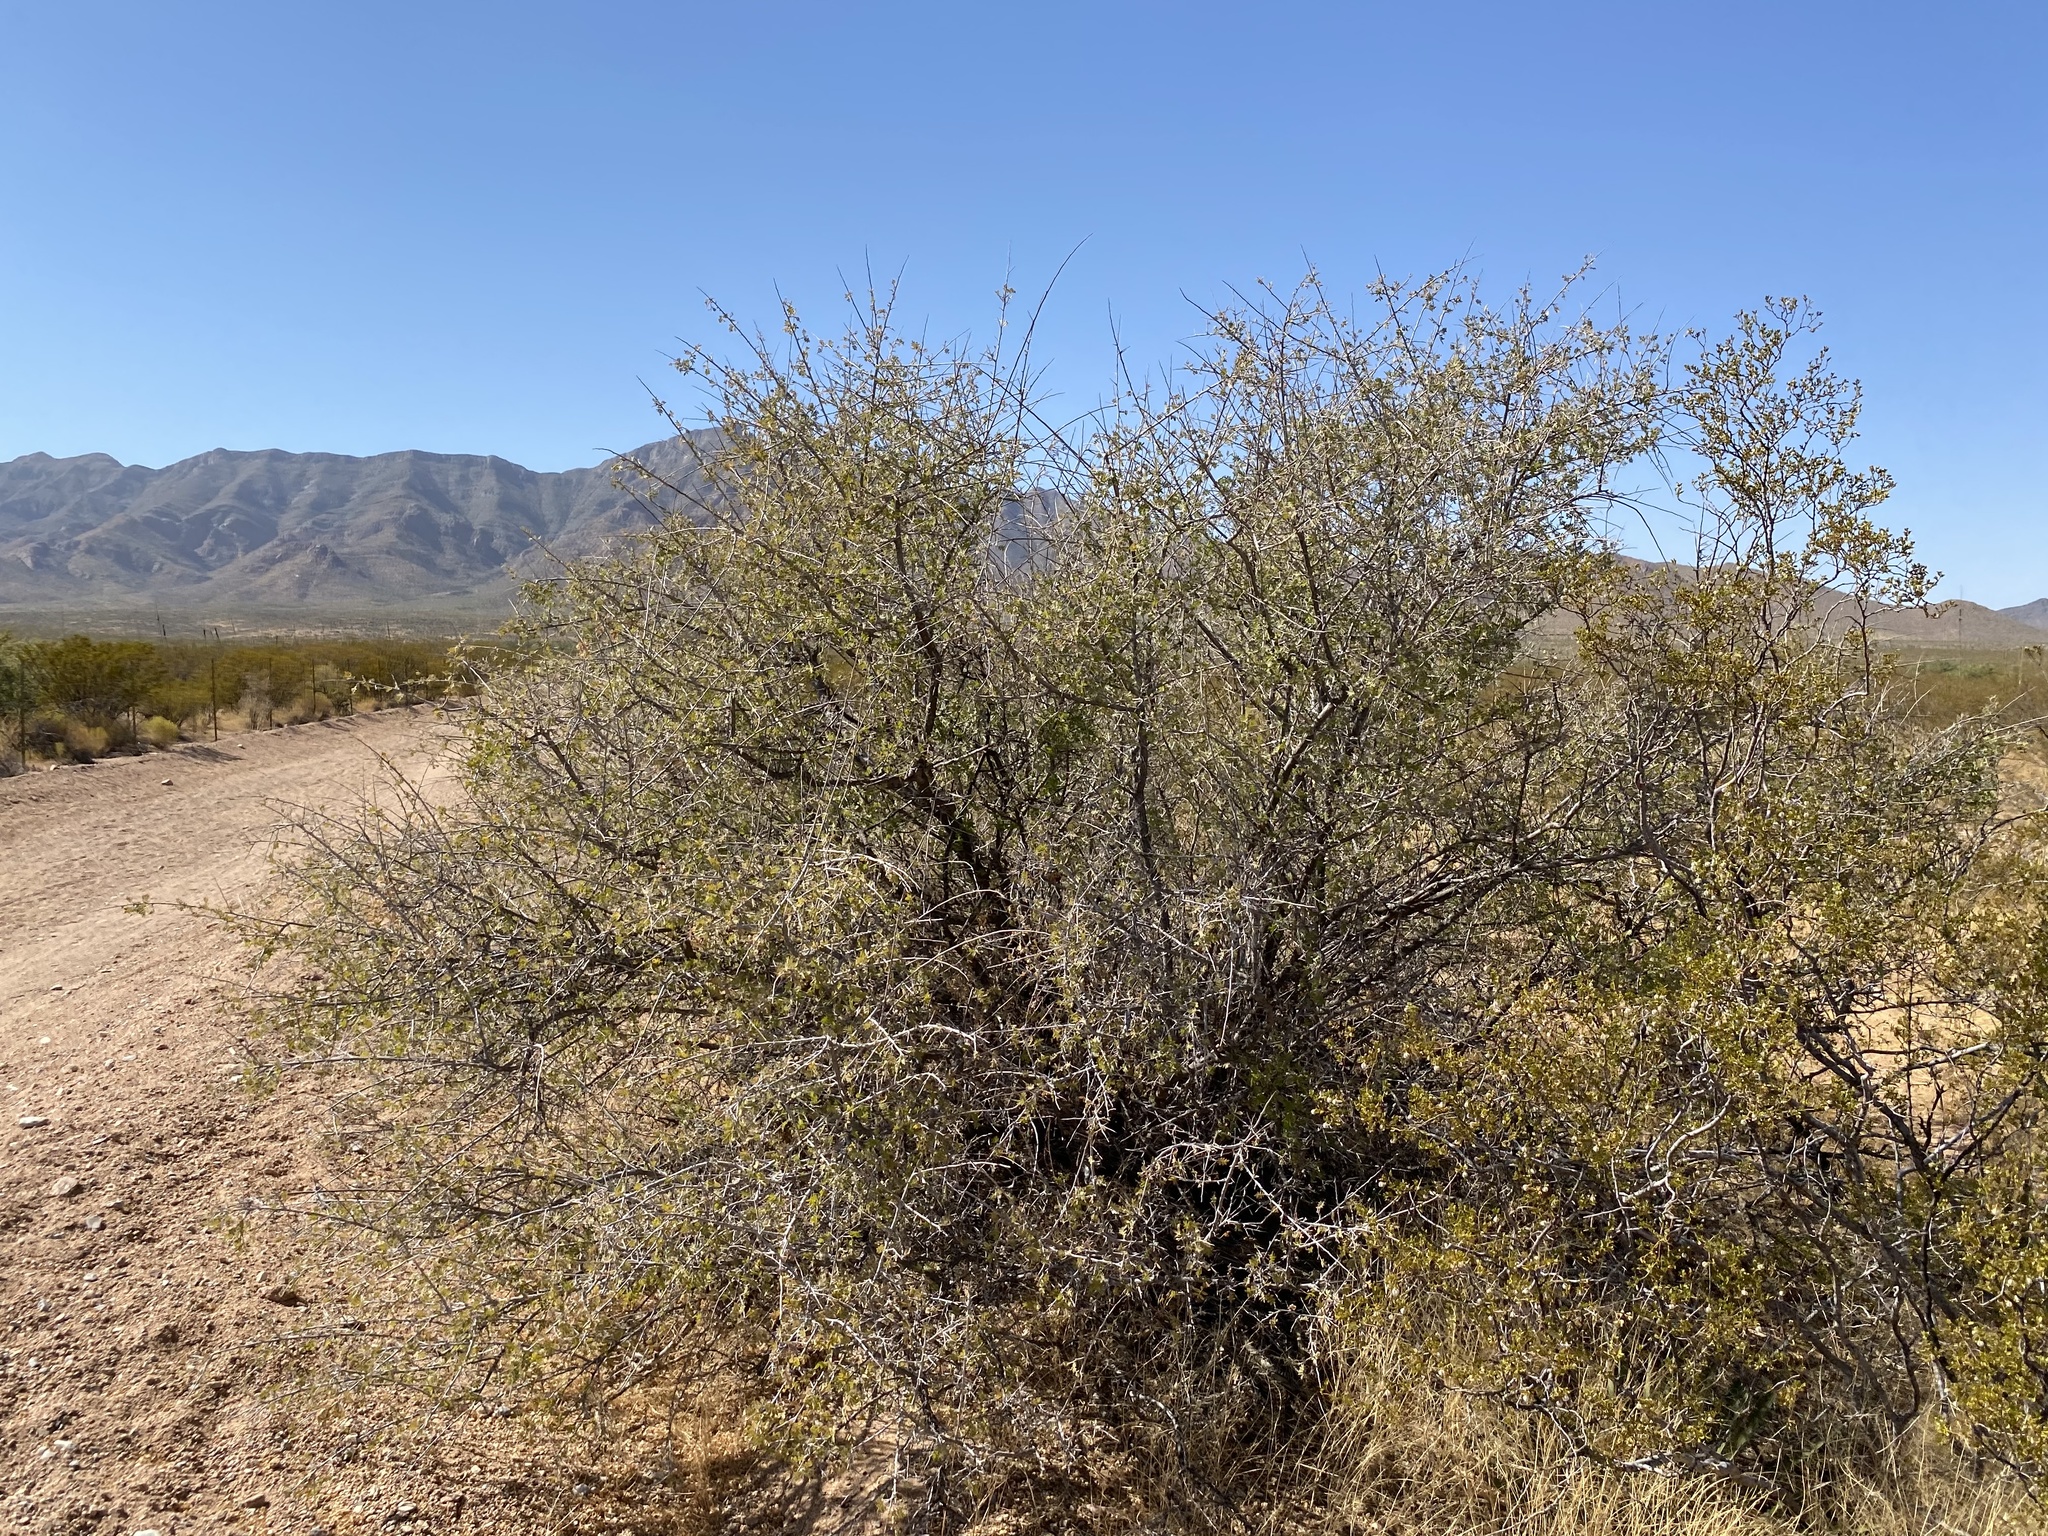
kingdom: Plantae
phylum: Tracheophyta
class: Magnoliopsida
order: Sapindales
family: Anacardiaceae
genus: Rhus
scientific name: Rhus microphylla
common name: Desert sumac
